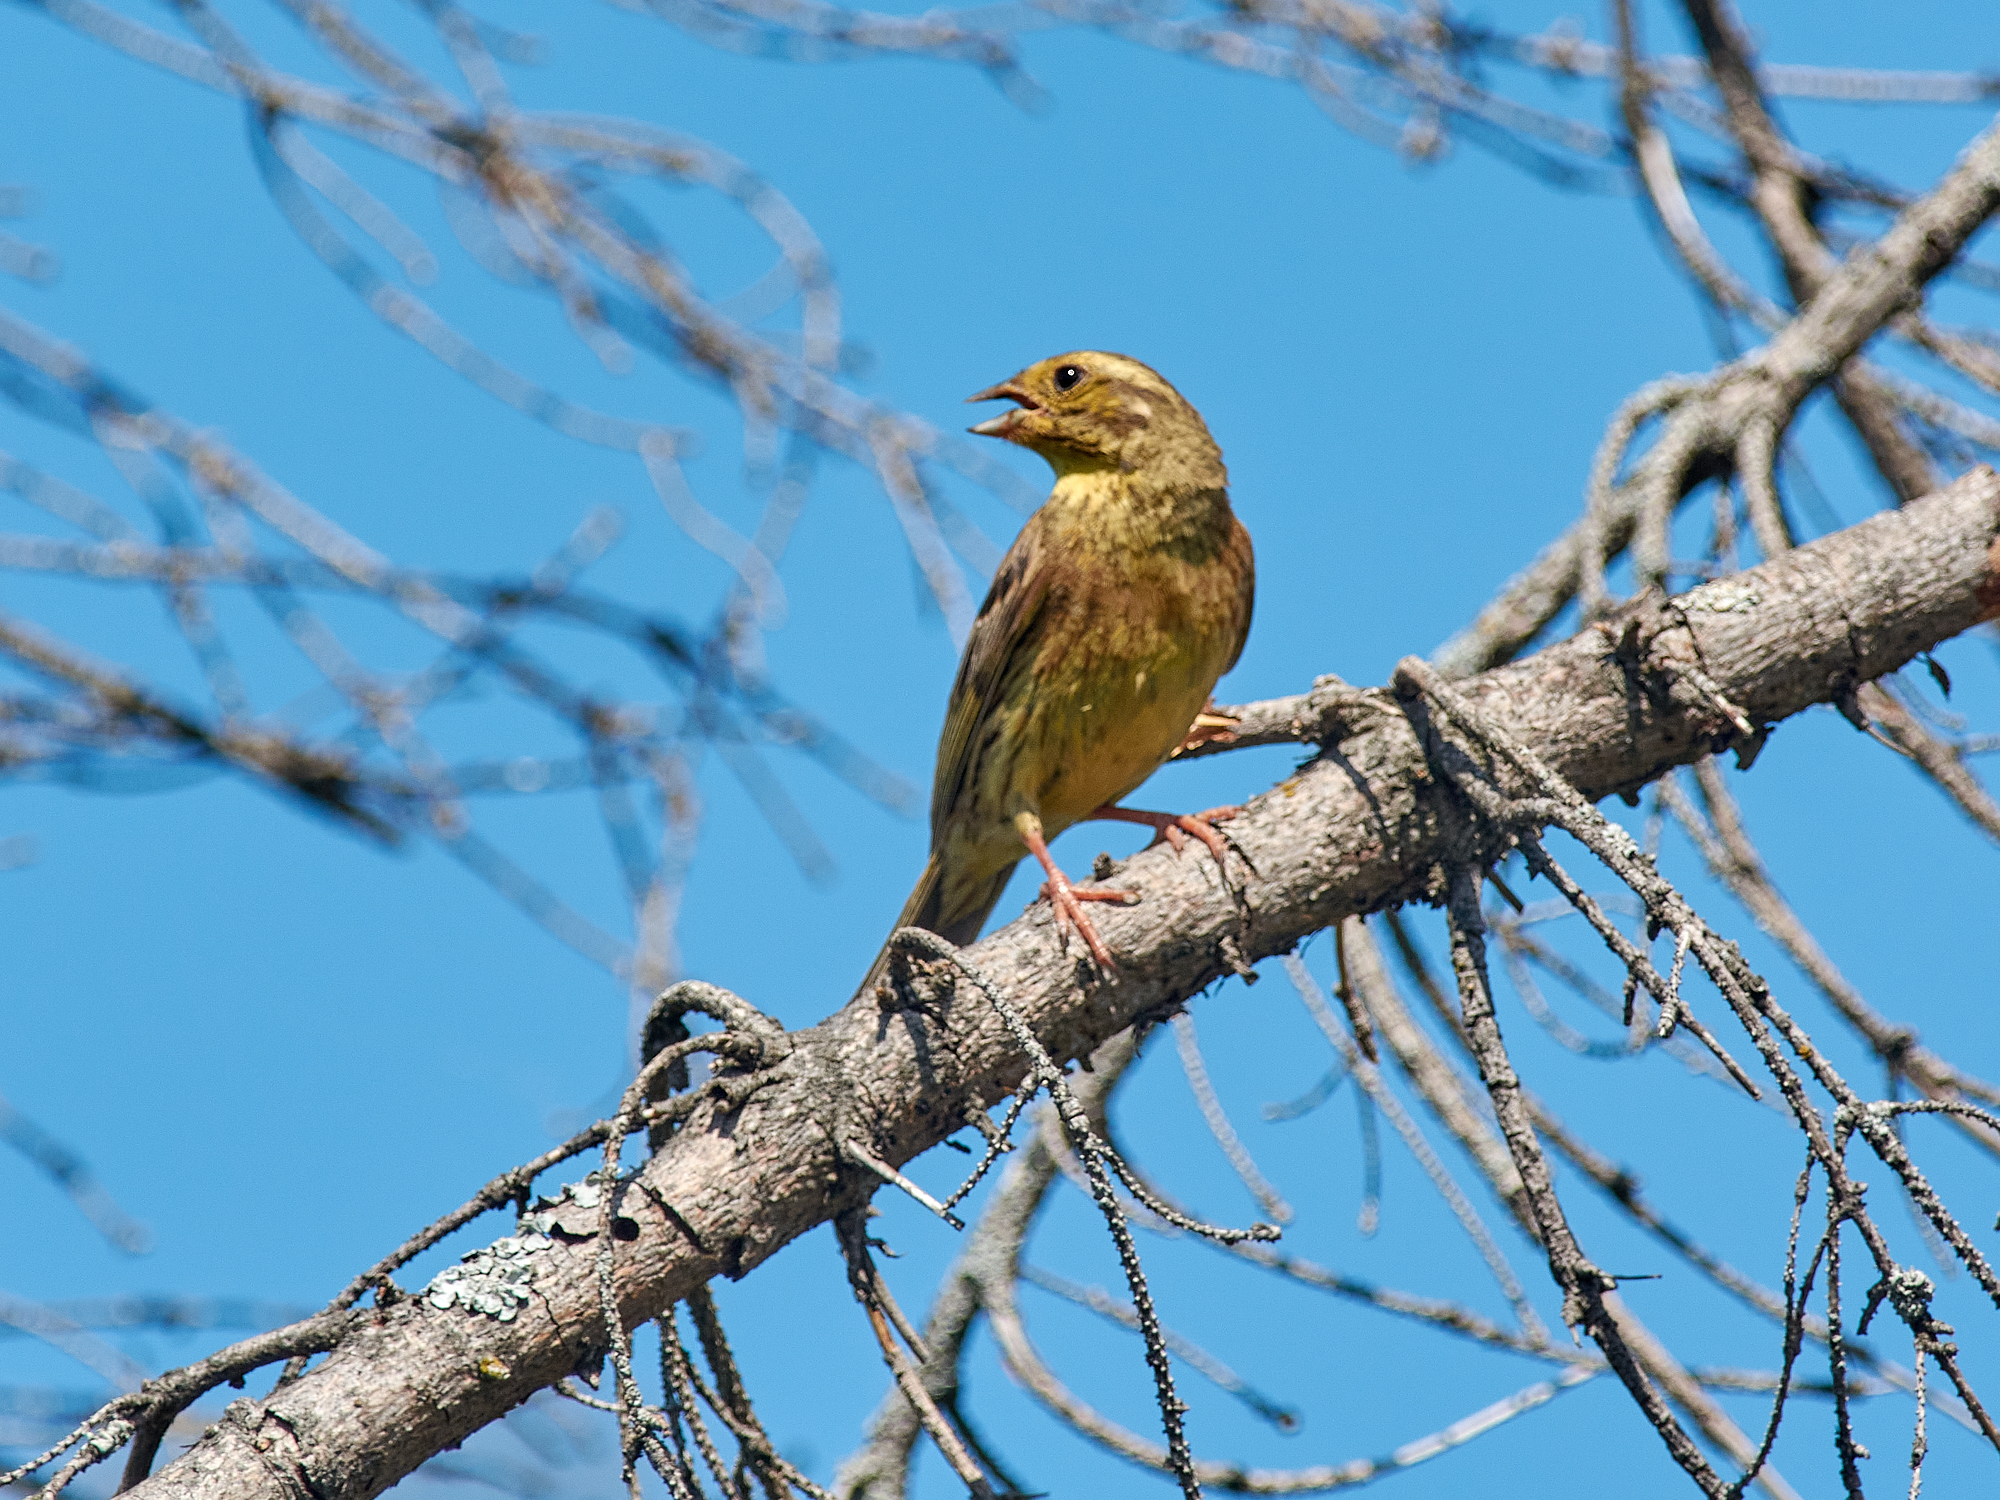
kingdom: Animalia
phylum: Chordata
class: Aves
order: Passeriformes
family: Emberizidae
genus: Emberiza
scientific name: Emberiza citrinella
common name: Yellowhammer
